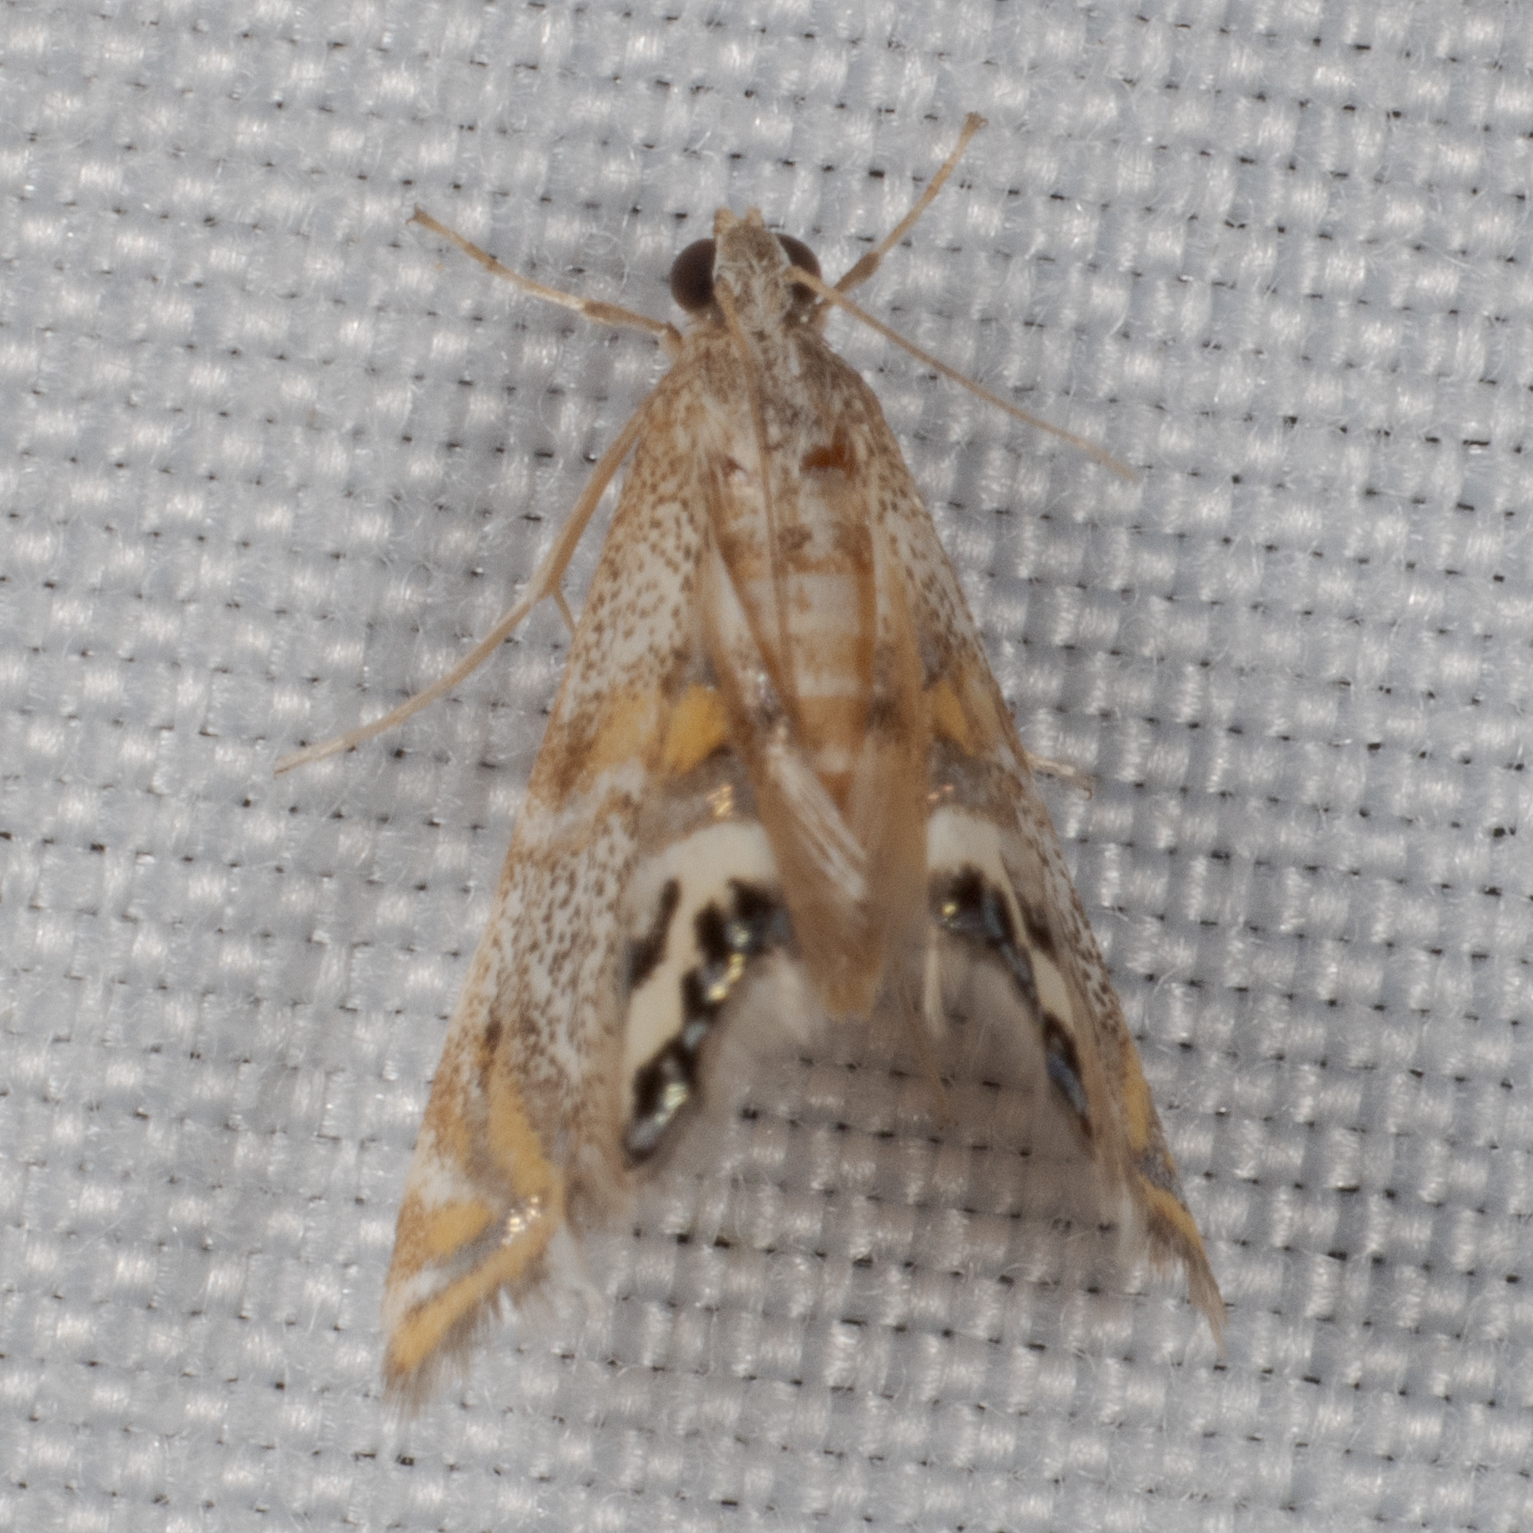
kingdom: Animalia
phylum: Arthropoda
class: Insecta
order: Lepidoptera
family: Crambidae
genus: Petrophila
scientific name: Petrophila bifascialis
